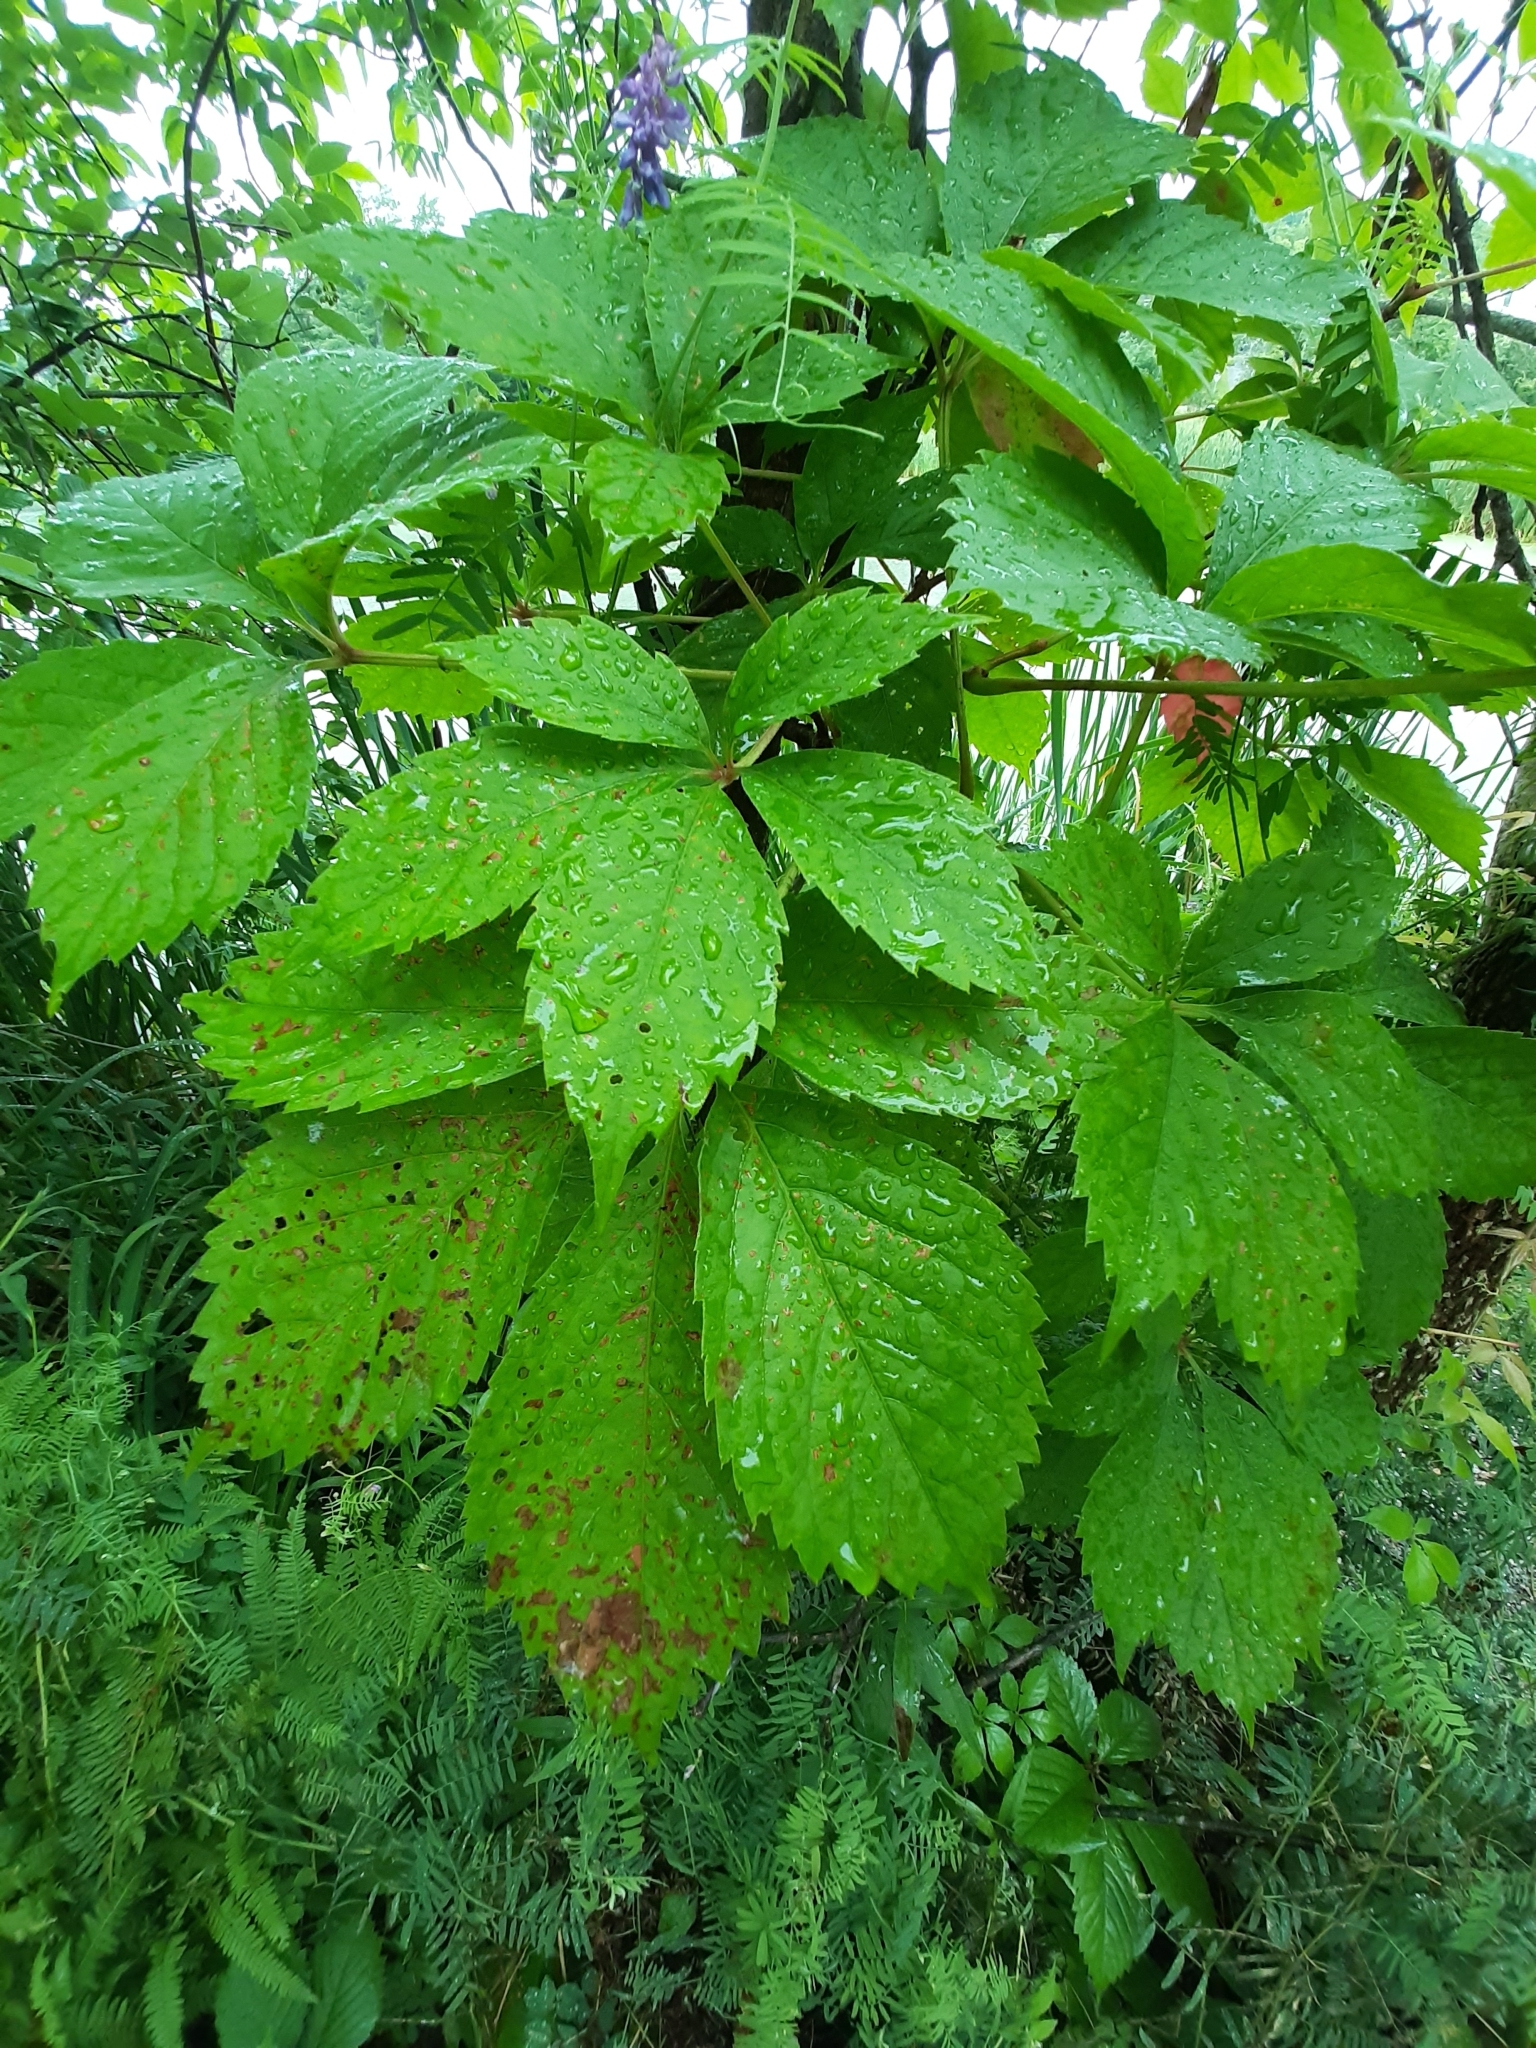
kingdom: Plantae
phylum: Tracheophyta
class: Magnoliopsida
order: Vitales
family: Vitaceae
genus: Parthenocissus
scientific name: Parthenocissus quinquefolia
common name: Virginia-creeper
